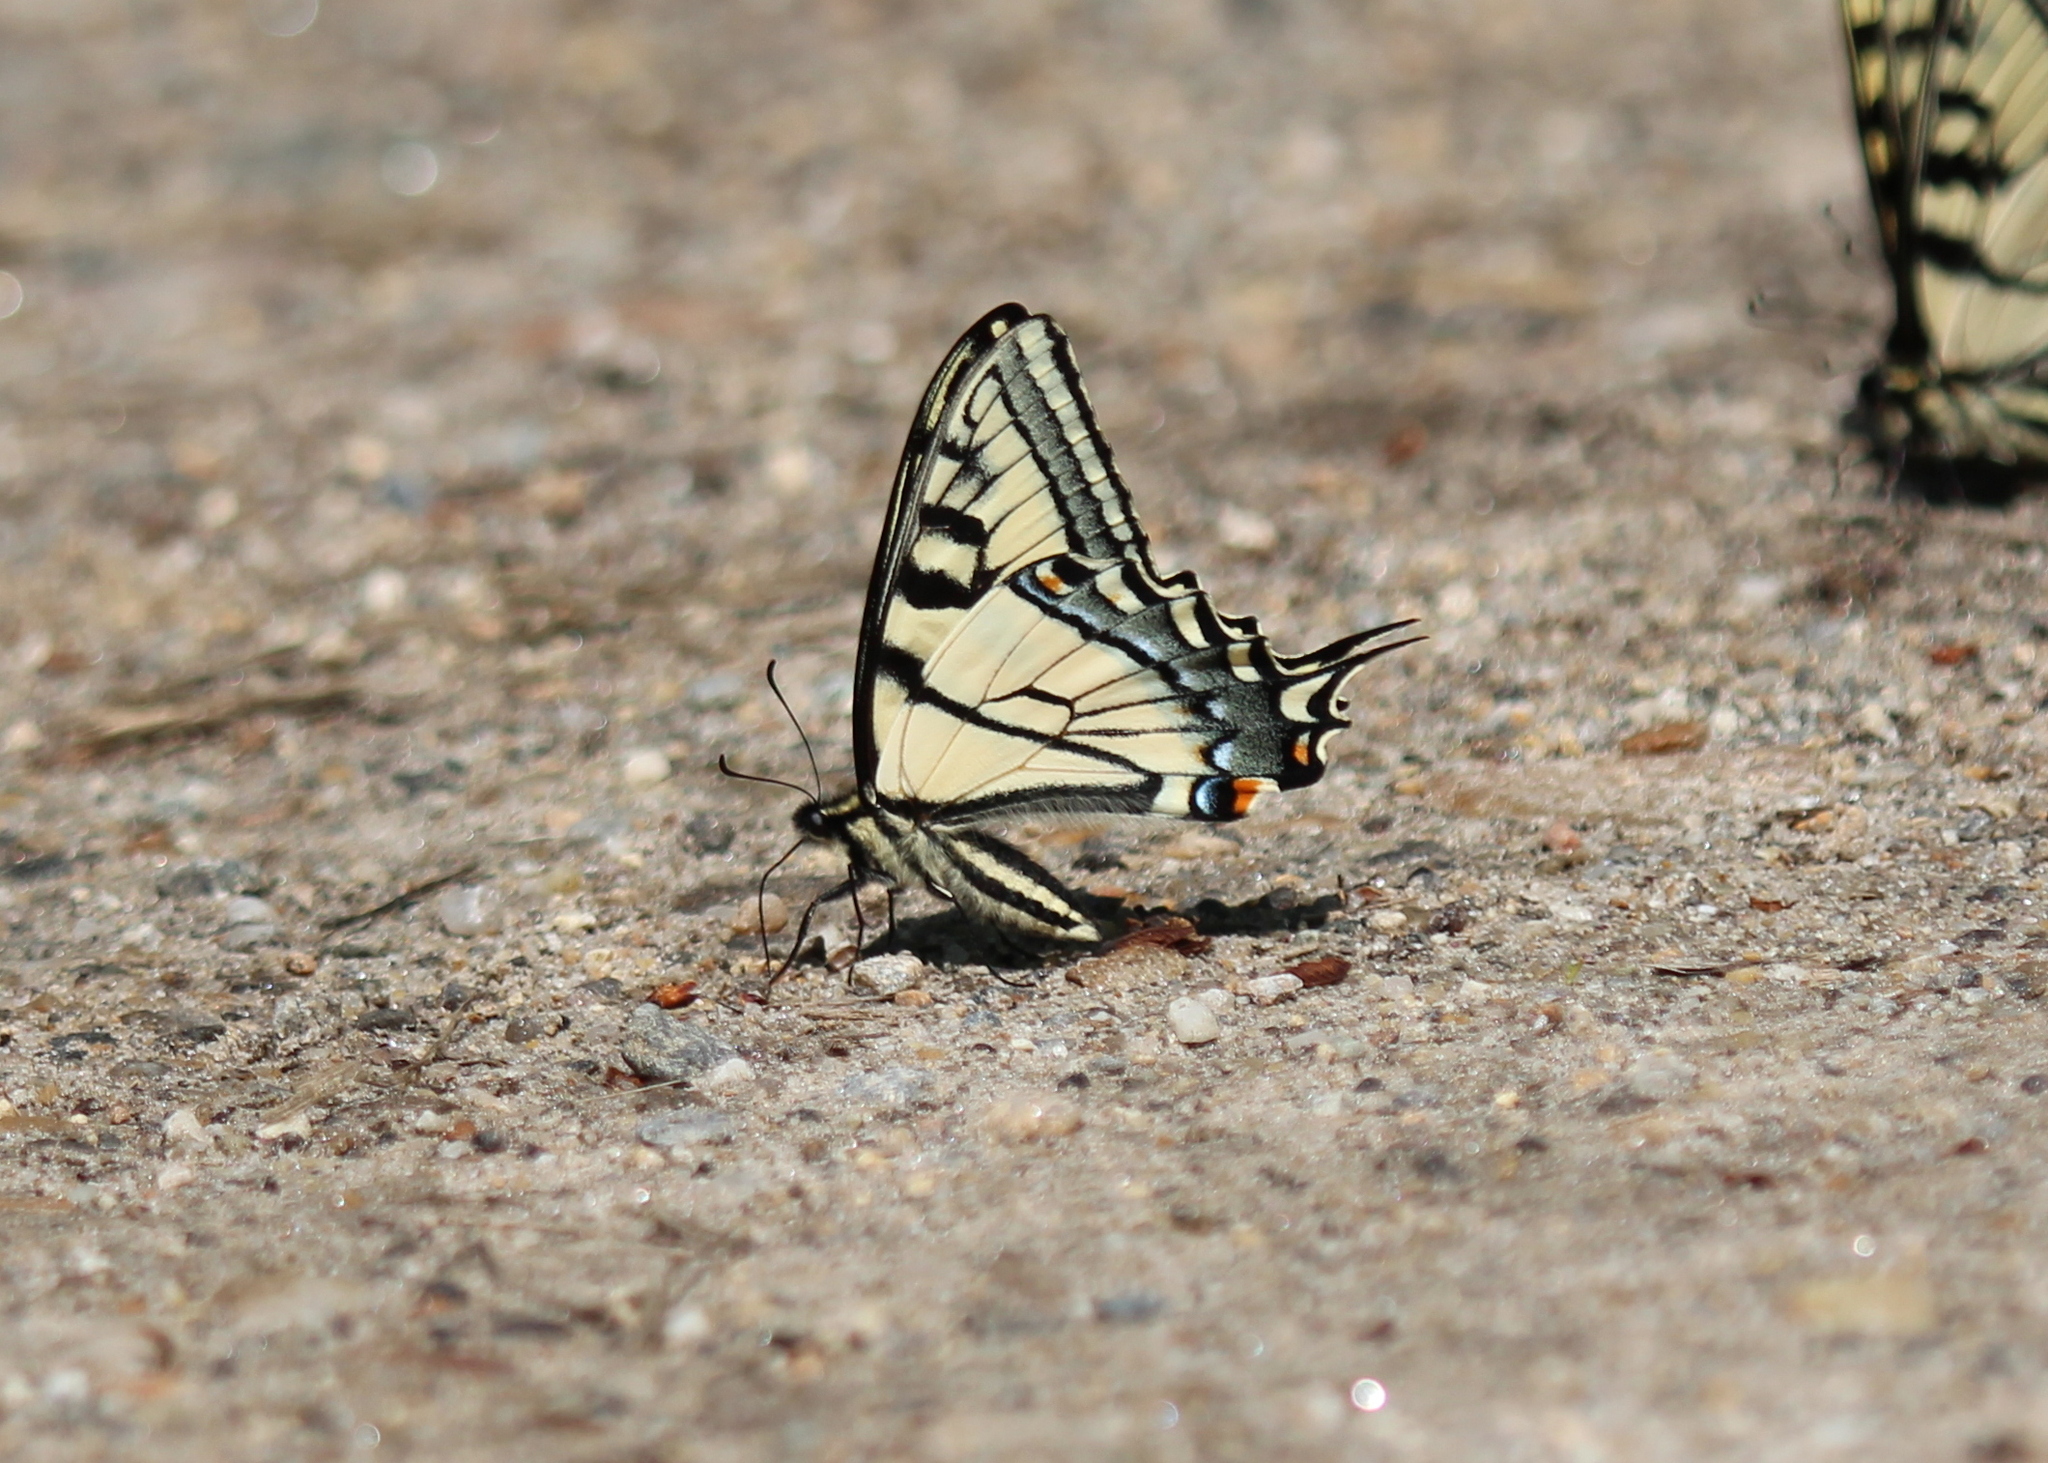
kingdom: Animalia
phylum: Arthropoda
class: Insecta
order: Lepidoptera
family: Papilionidae
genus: Papilio
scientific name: Papilio canadensis
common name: Canadian tiger swallowtail
